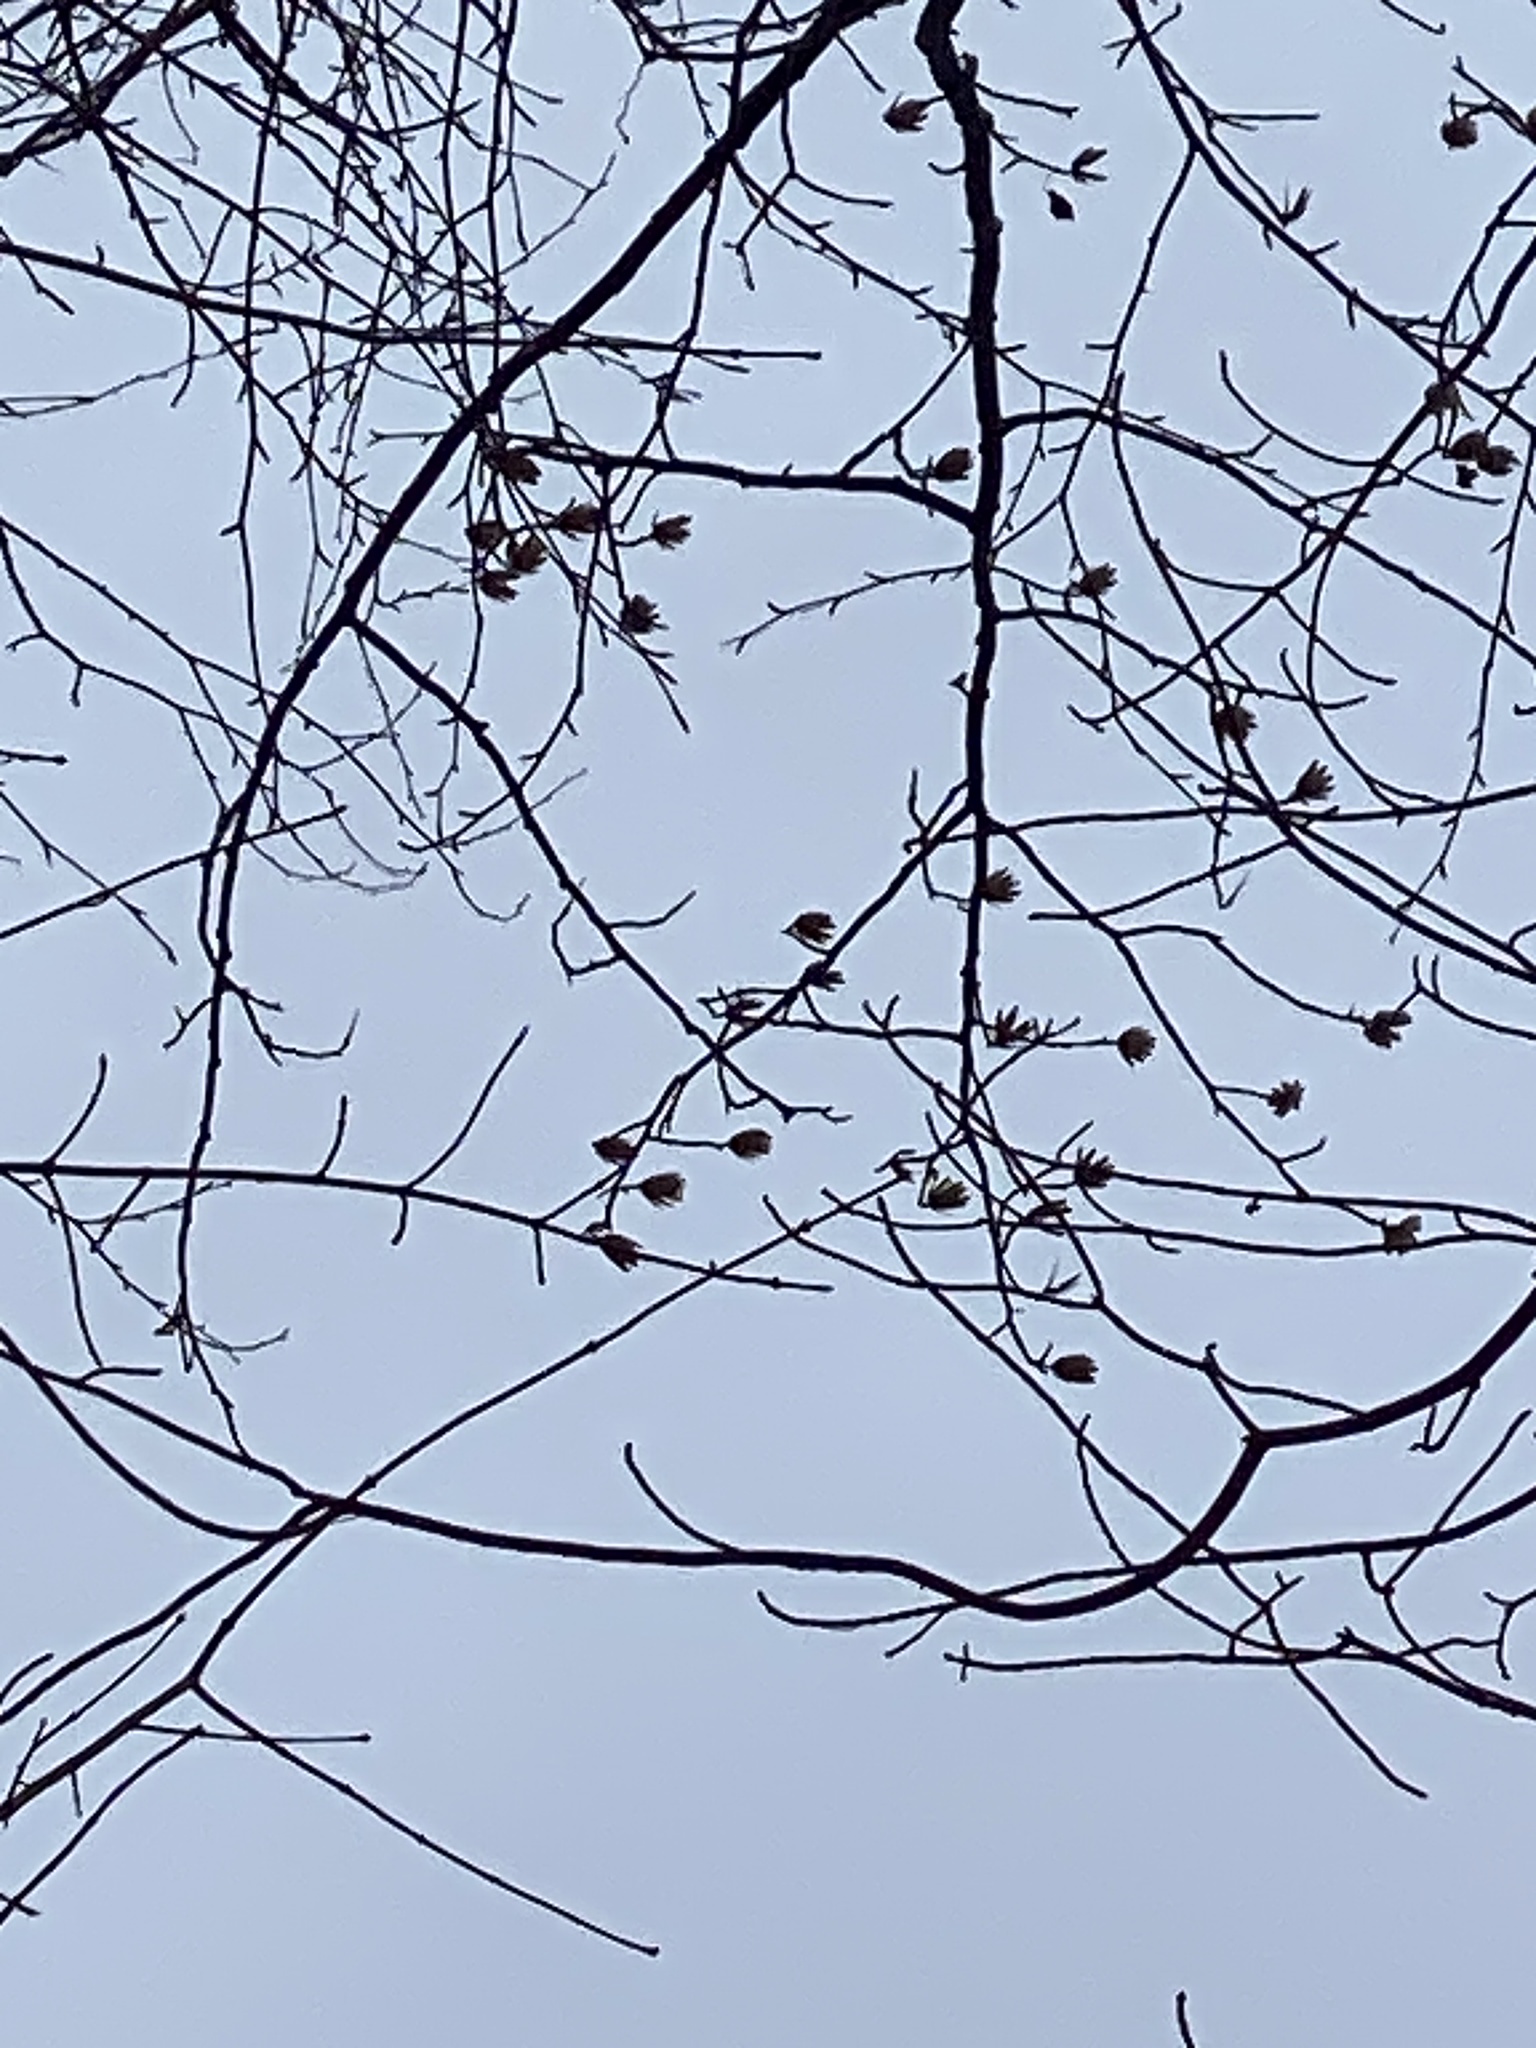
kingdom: Plantae
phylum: Tracheophyta
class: Magnoliopsida
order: Magnoliales
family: Magnoliaceae
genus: Liriodendron
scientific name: Liriodendron tulipifera
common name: Tulip tree
